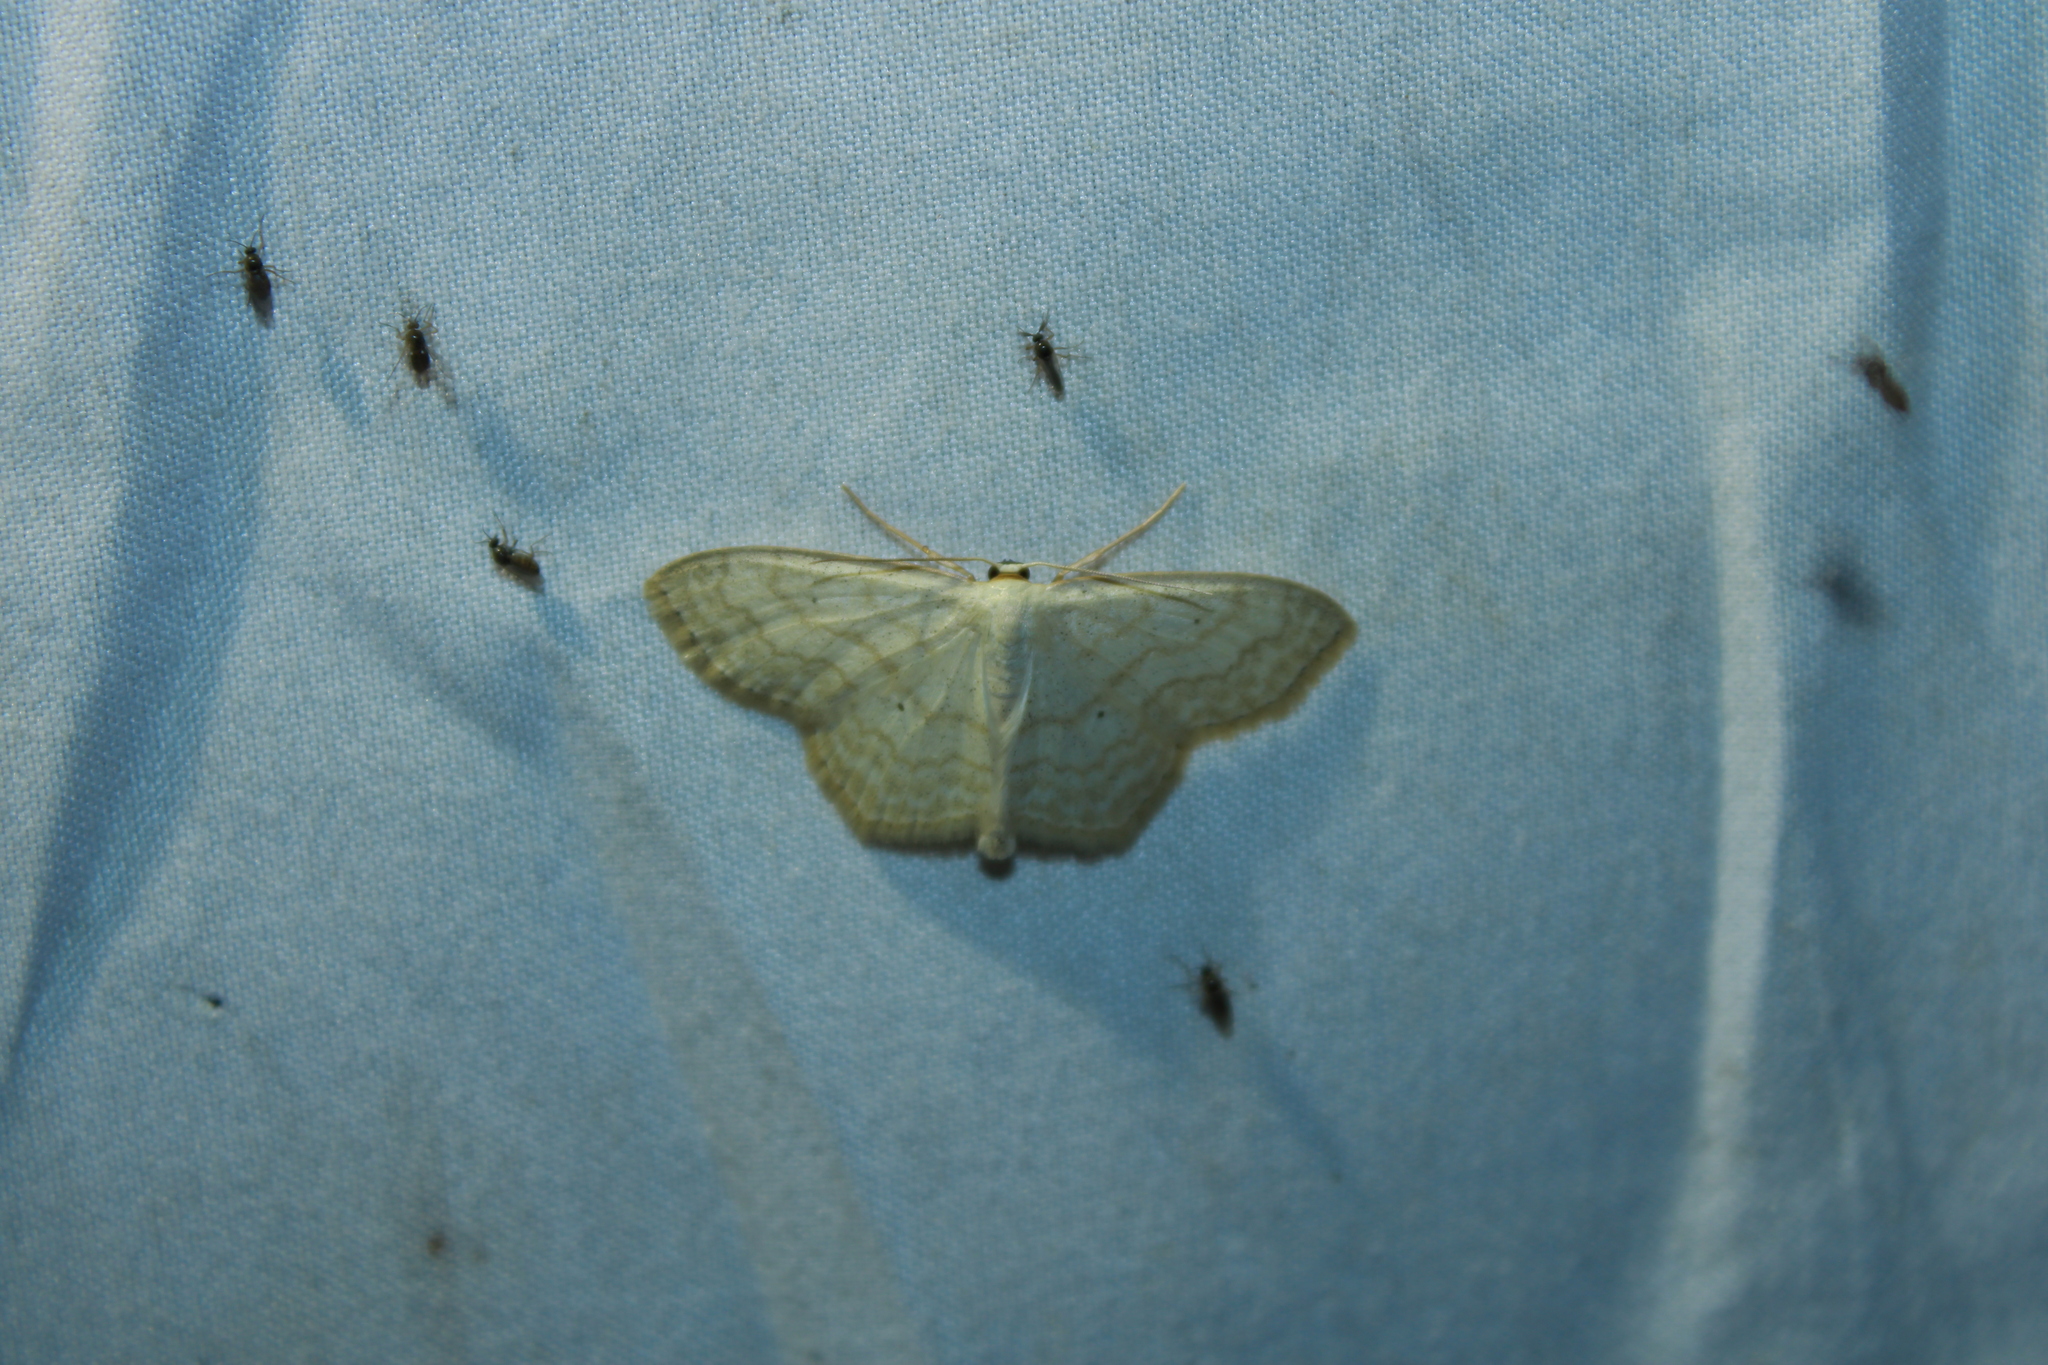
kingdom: Animalia
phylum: Arthropoda
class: Insecta
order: Lepidoptera
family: Geometridae
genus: Scopula
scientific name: Scopula limboundata
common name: Large lace border
